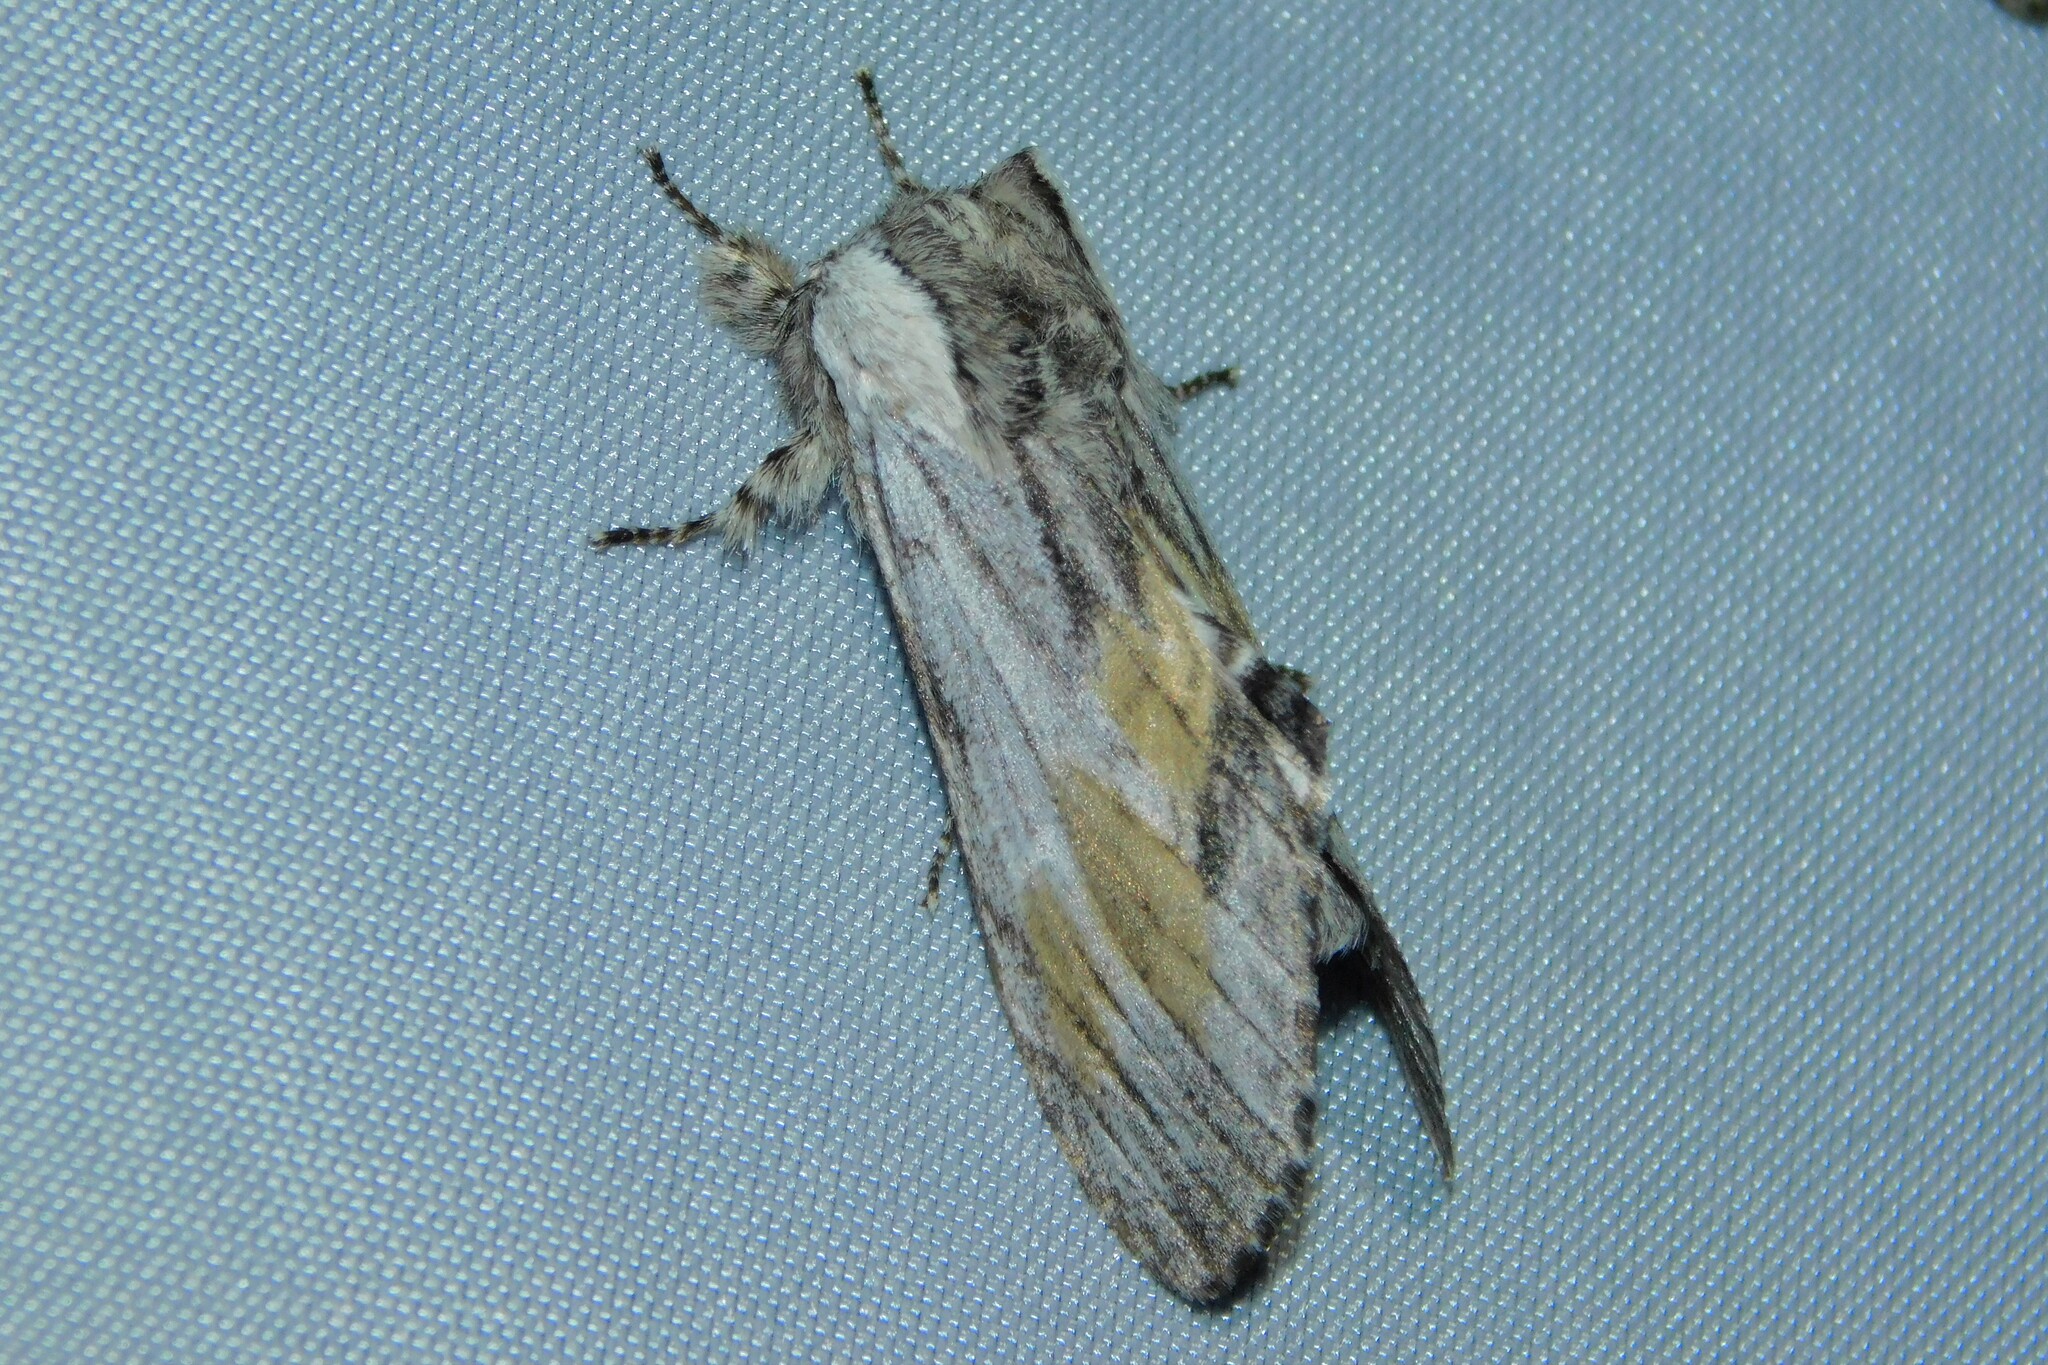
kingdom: Animalia
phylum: Arthropoda
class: Insecta
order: Lepidoptera
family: Notodontidae
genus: Harpyia
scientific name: Harpyia milhauseri
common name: Tawny prominent
